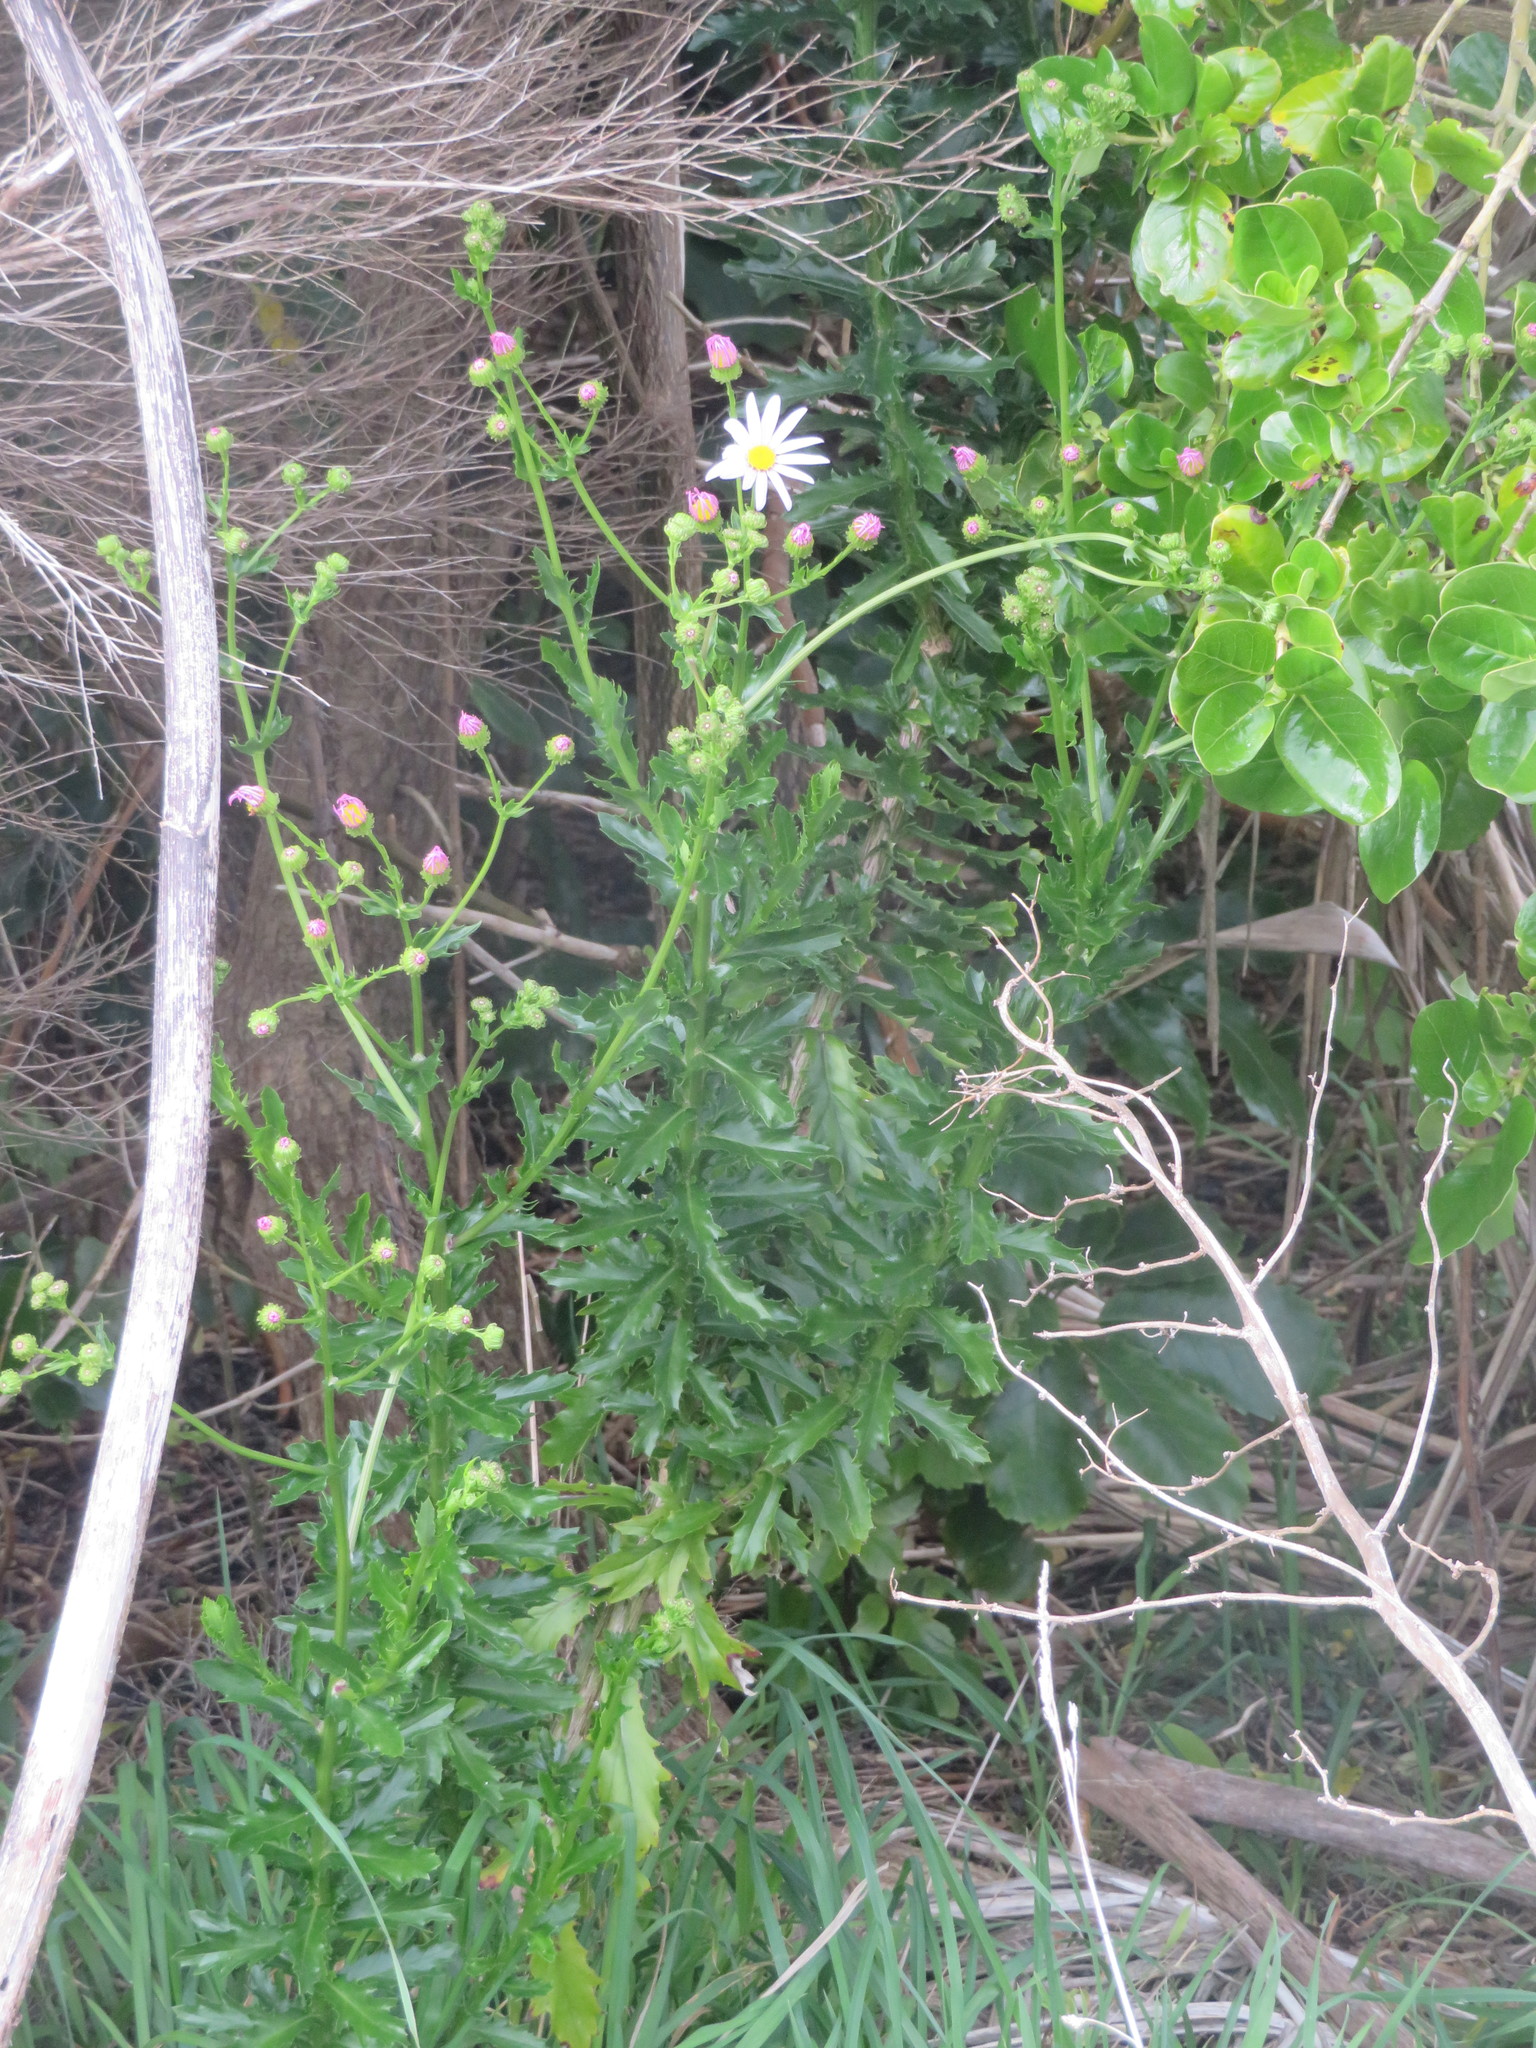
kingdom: Plantae
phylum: Tracheophyta
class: Magnoliopsida
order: Asterales
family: Asteraceae
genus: Senecio
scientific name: Senecio glastifolius
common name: Woad-leaved ragwort
